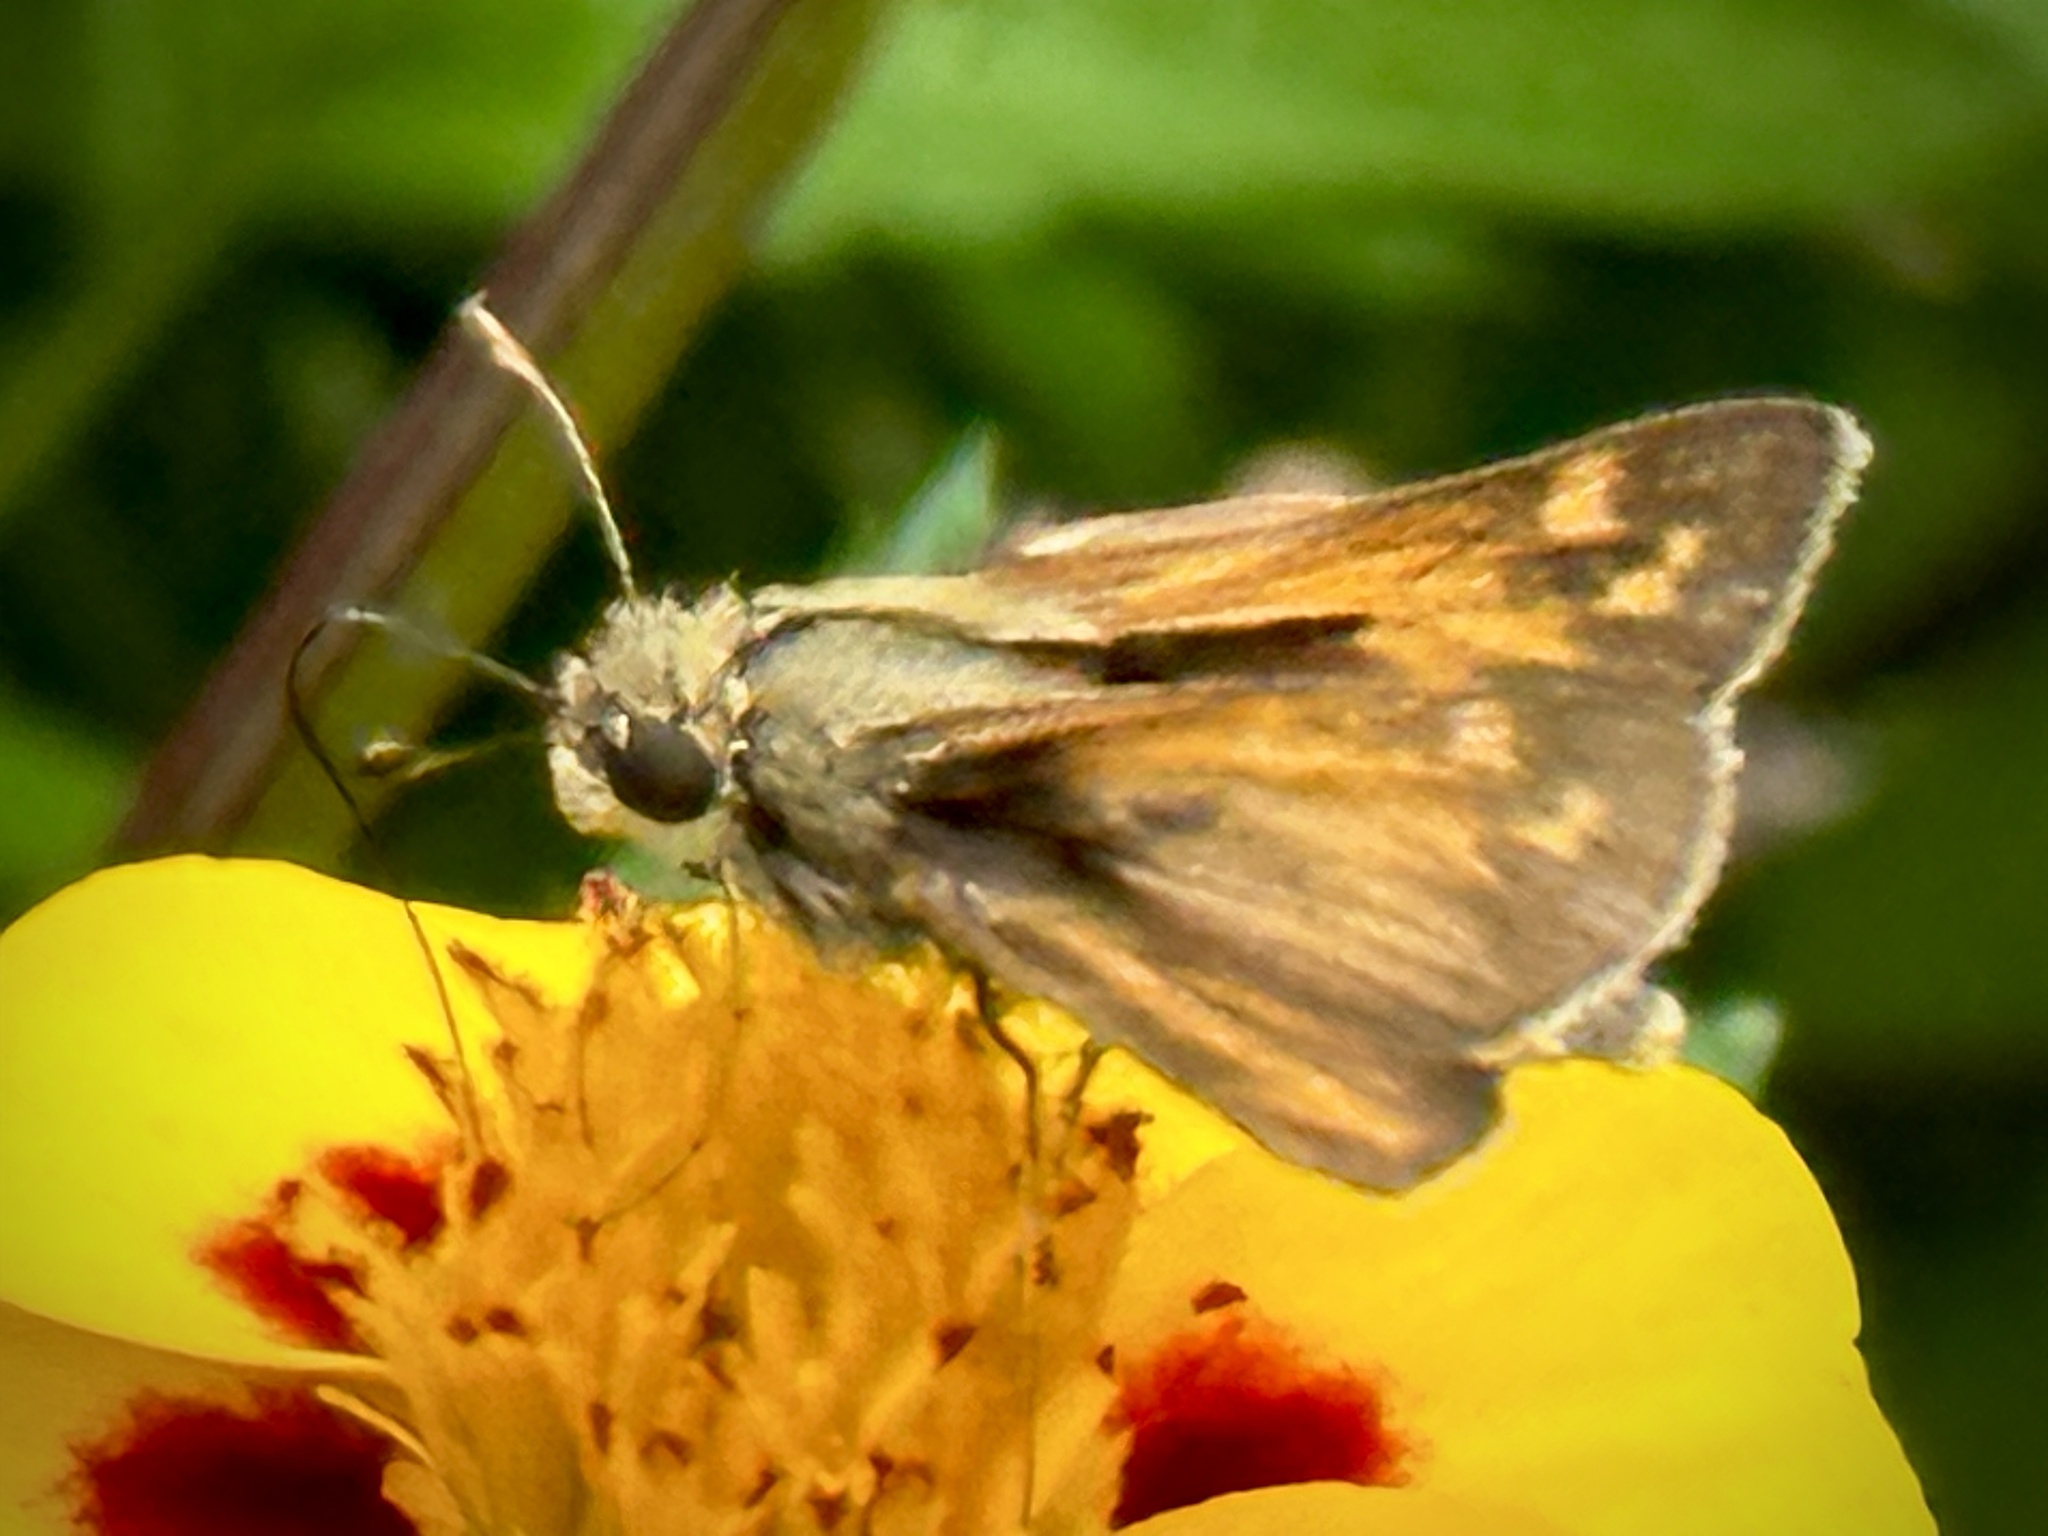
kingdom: Animalia
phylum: Arthropoda
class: Insecta
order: Lepidoptera
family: Hesperiidae
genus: Atalopedes
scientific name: Atalopedes
